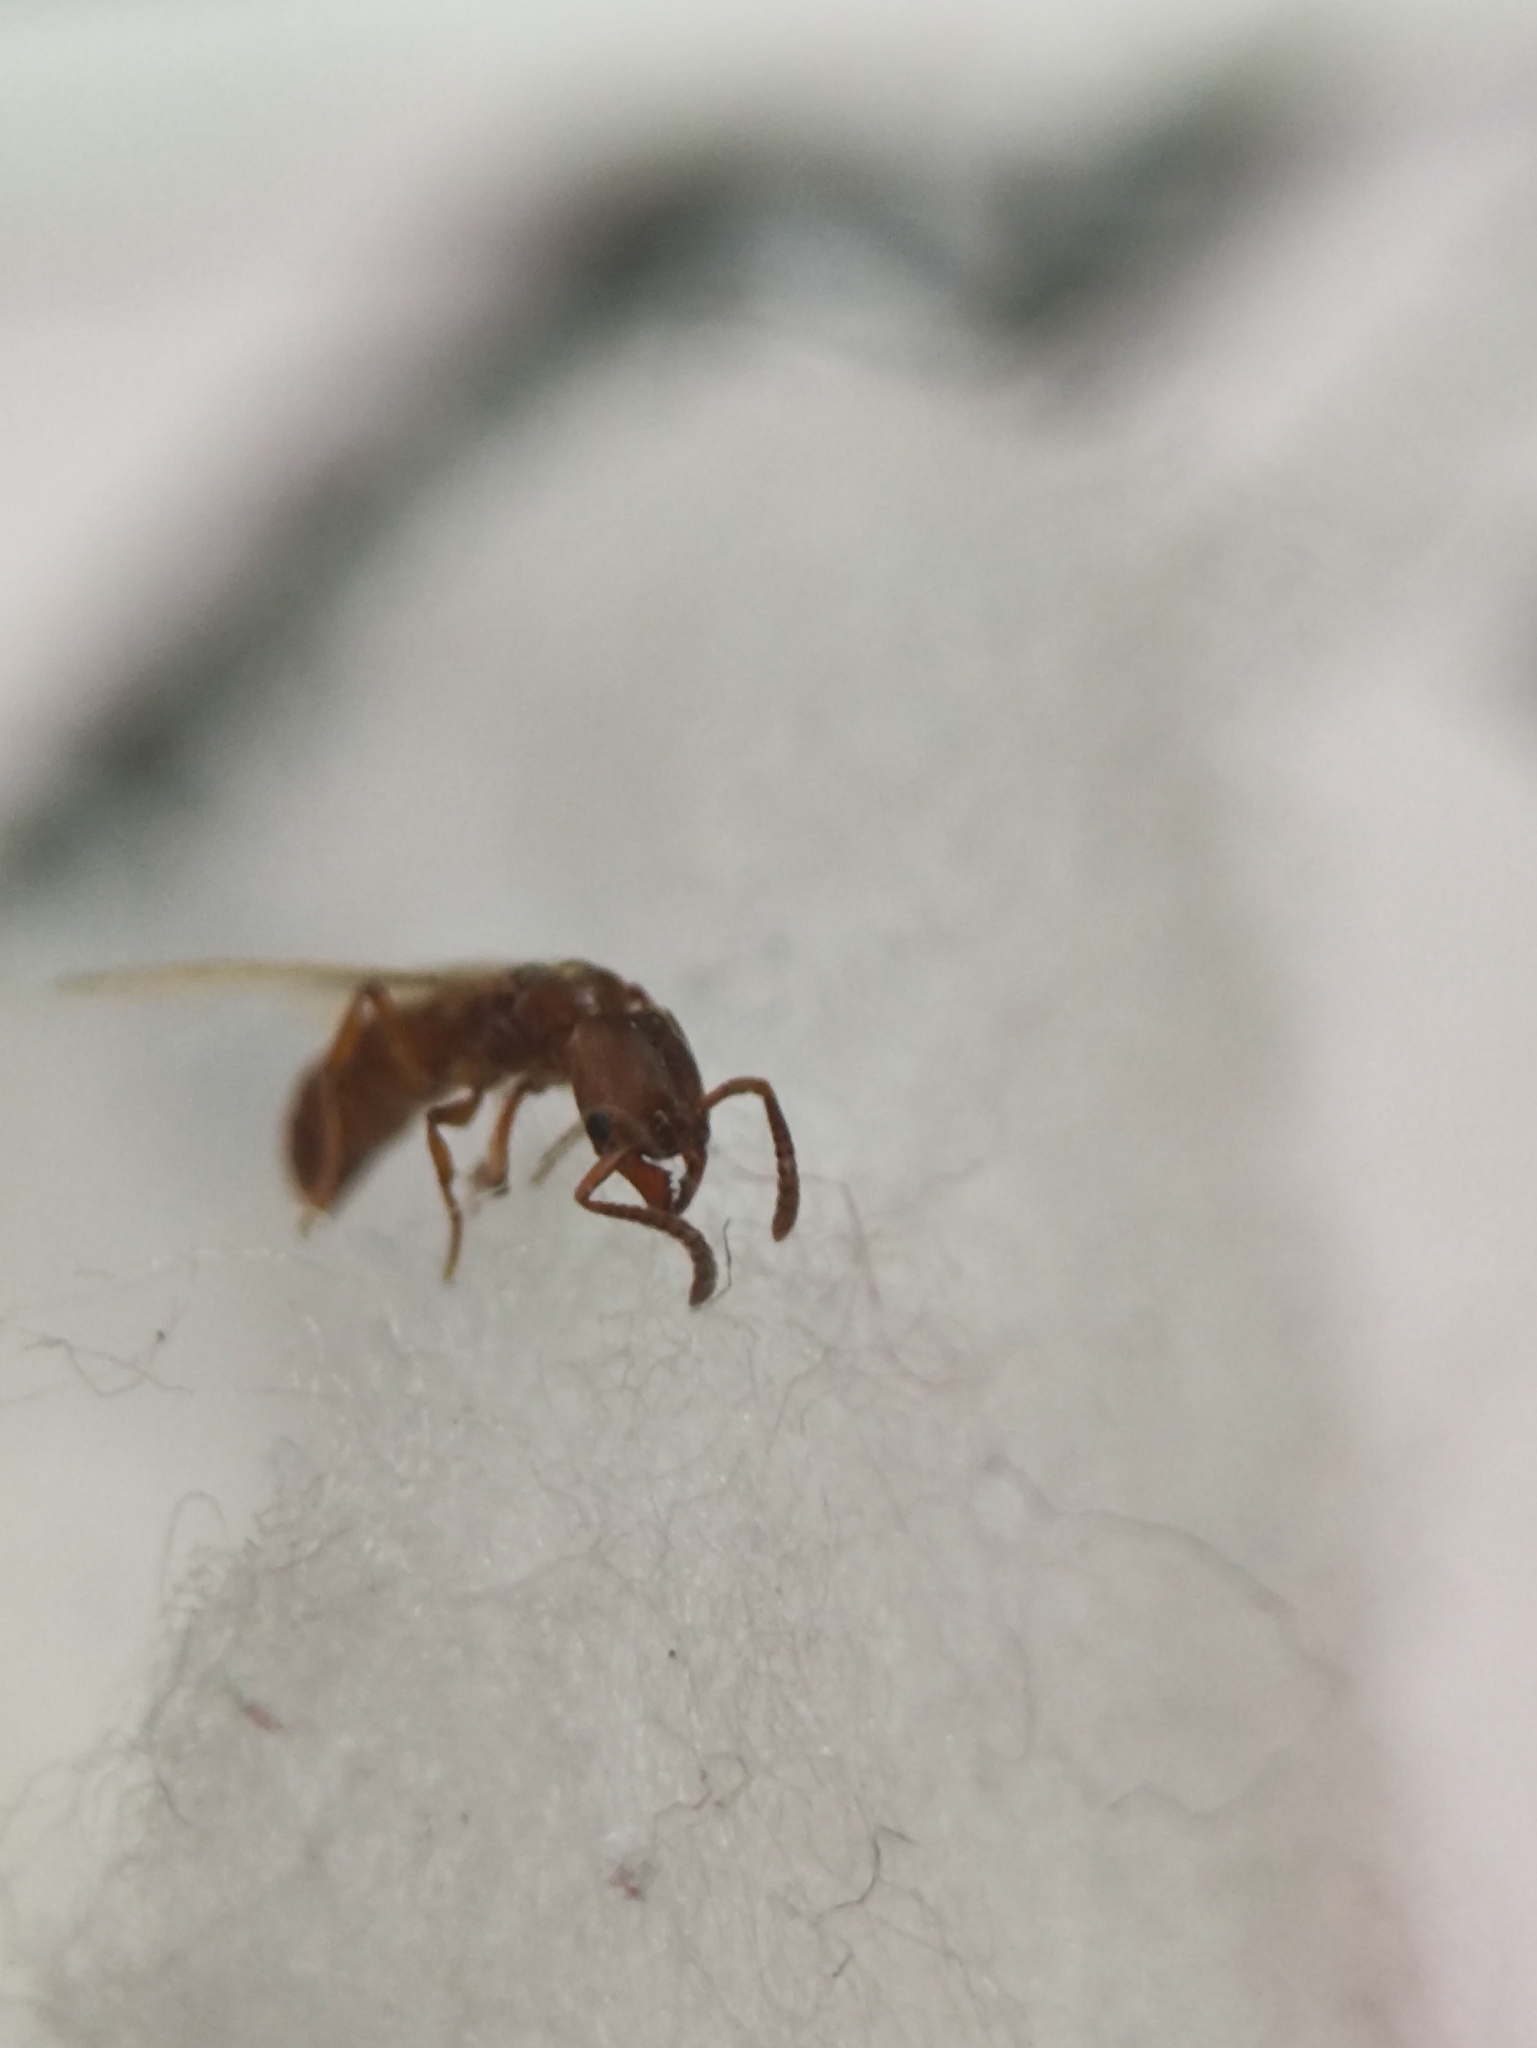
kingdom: Animalia
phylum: Arthropoda
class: Insecta
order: Hymenoptera
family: Formicidae
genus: Pachycondyla
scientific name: Pachycondyla darwinii
